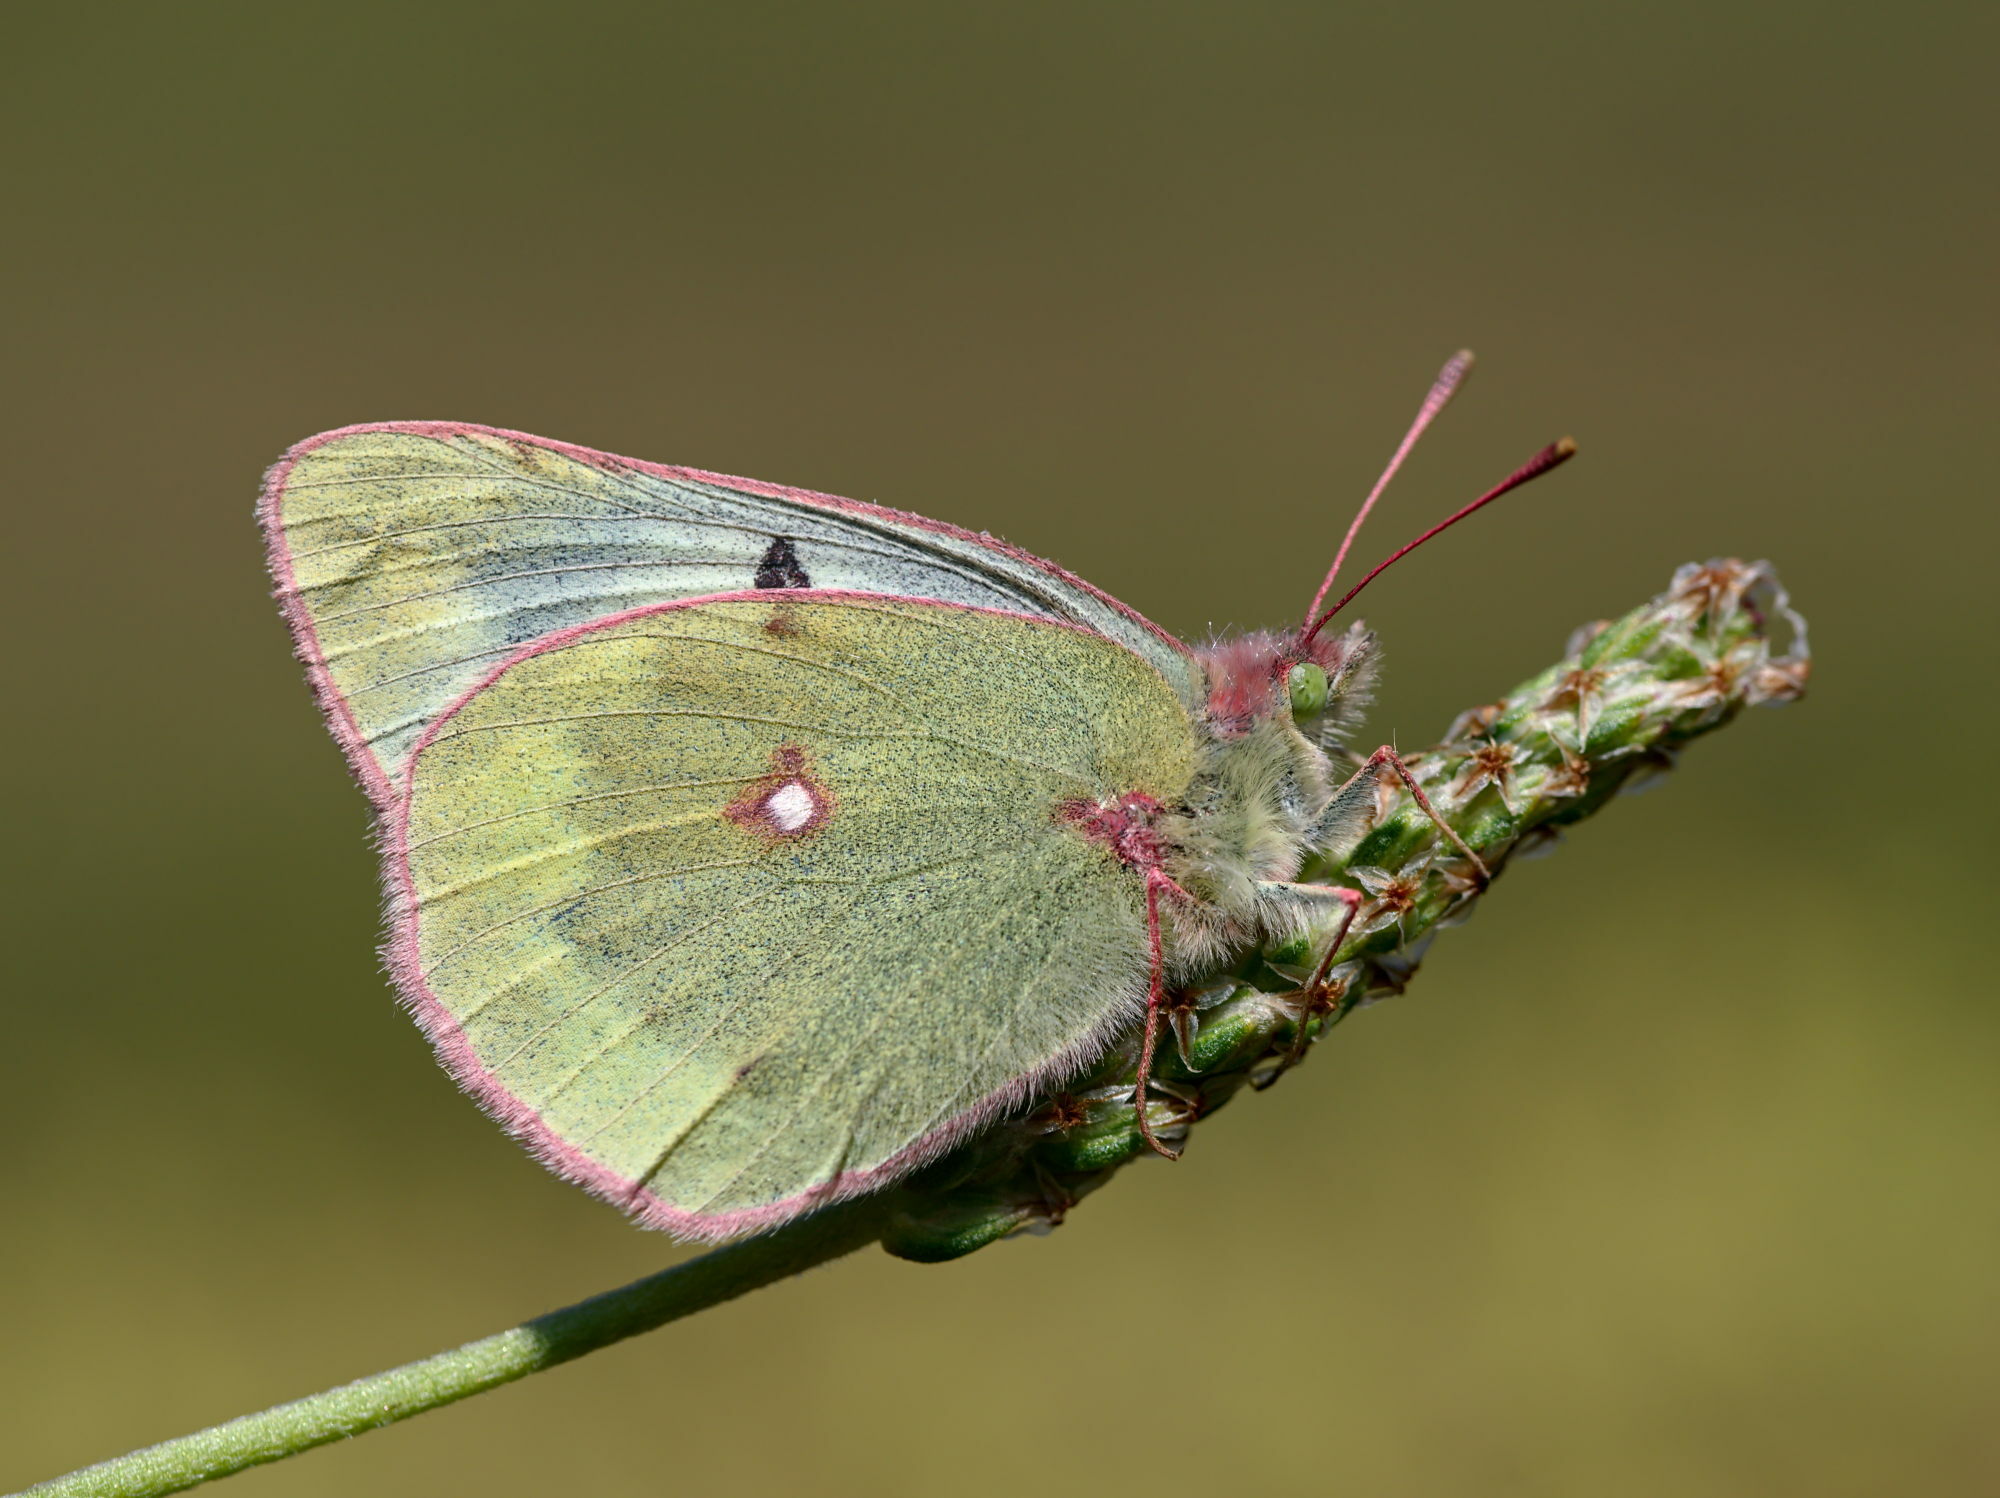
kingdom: Animalia
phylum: Arthropoda
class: Insecta
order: Lepidoptera
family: Pieridae
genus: Colias
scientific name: Colias phicomone
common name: Mountain clouded yellow
